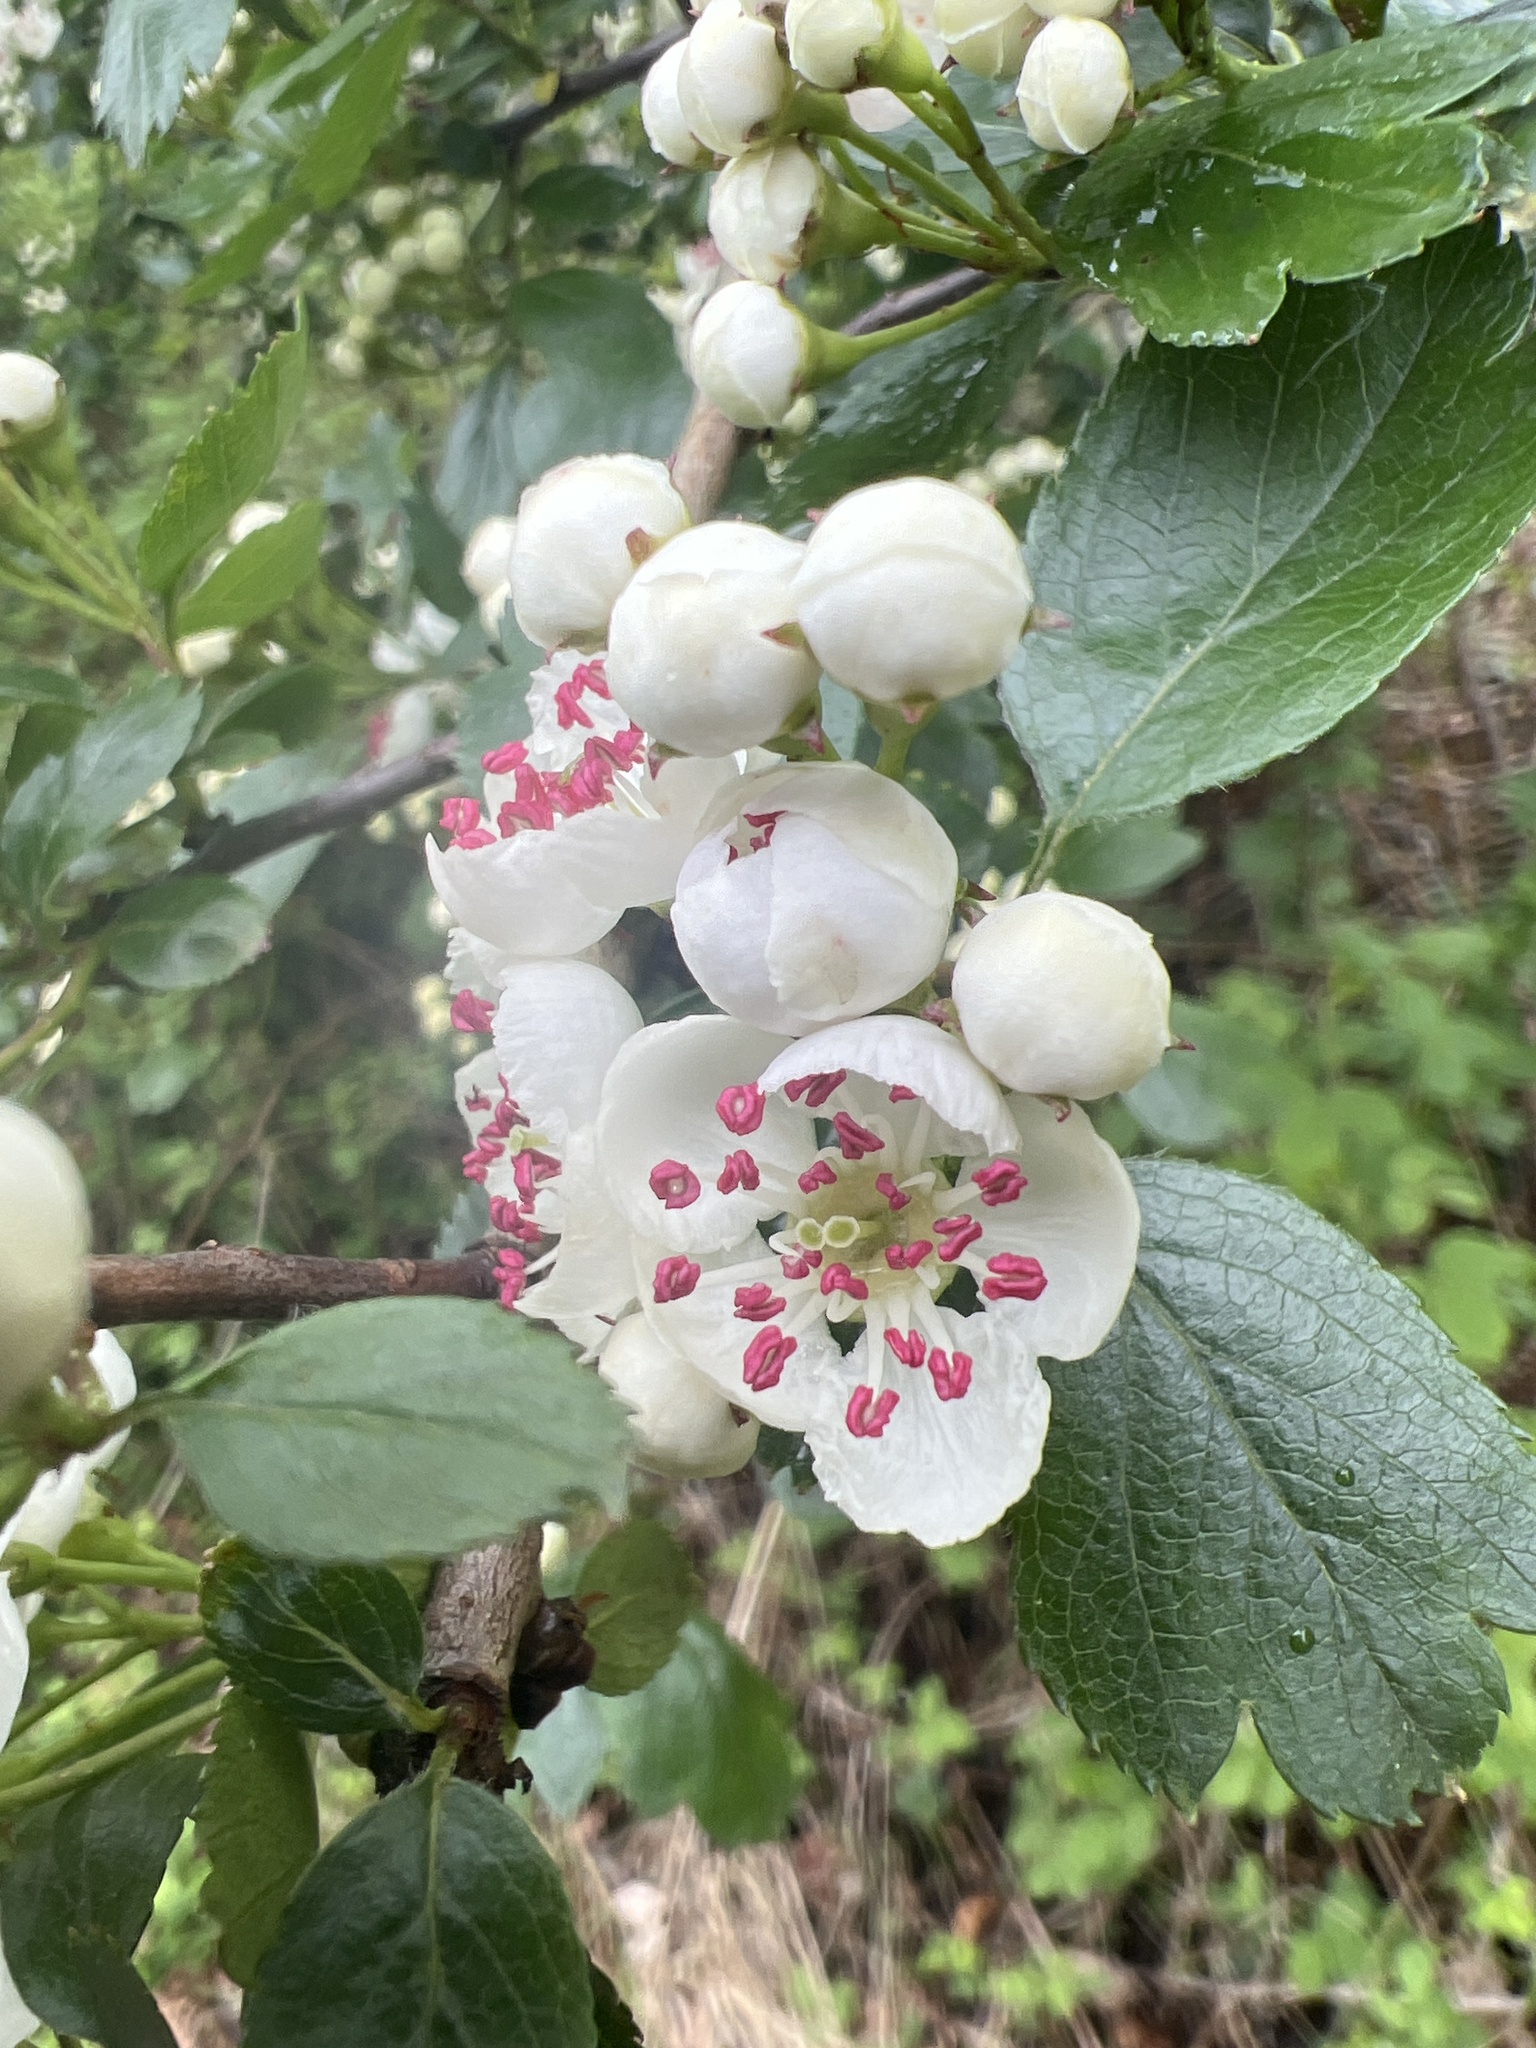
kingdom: Plantae
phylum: Tracheophyta
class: Magnoliopsida
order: Rosales
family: Rosaceae
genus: Crataegus
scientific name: Crataegus laevigata
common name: Midland hawthorn
